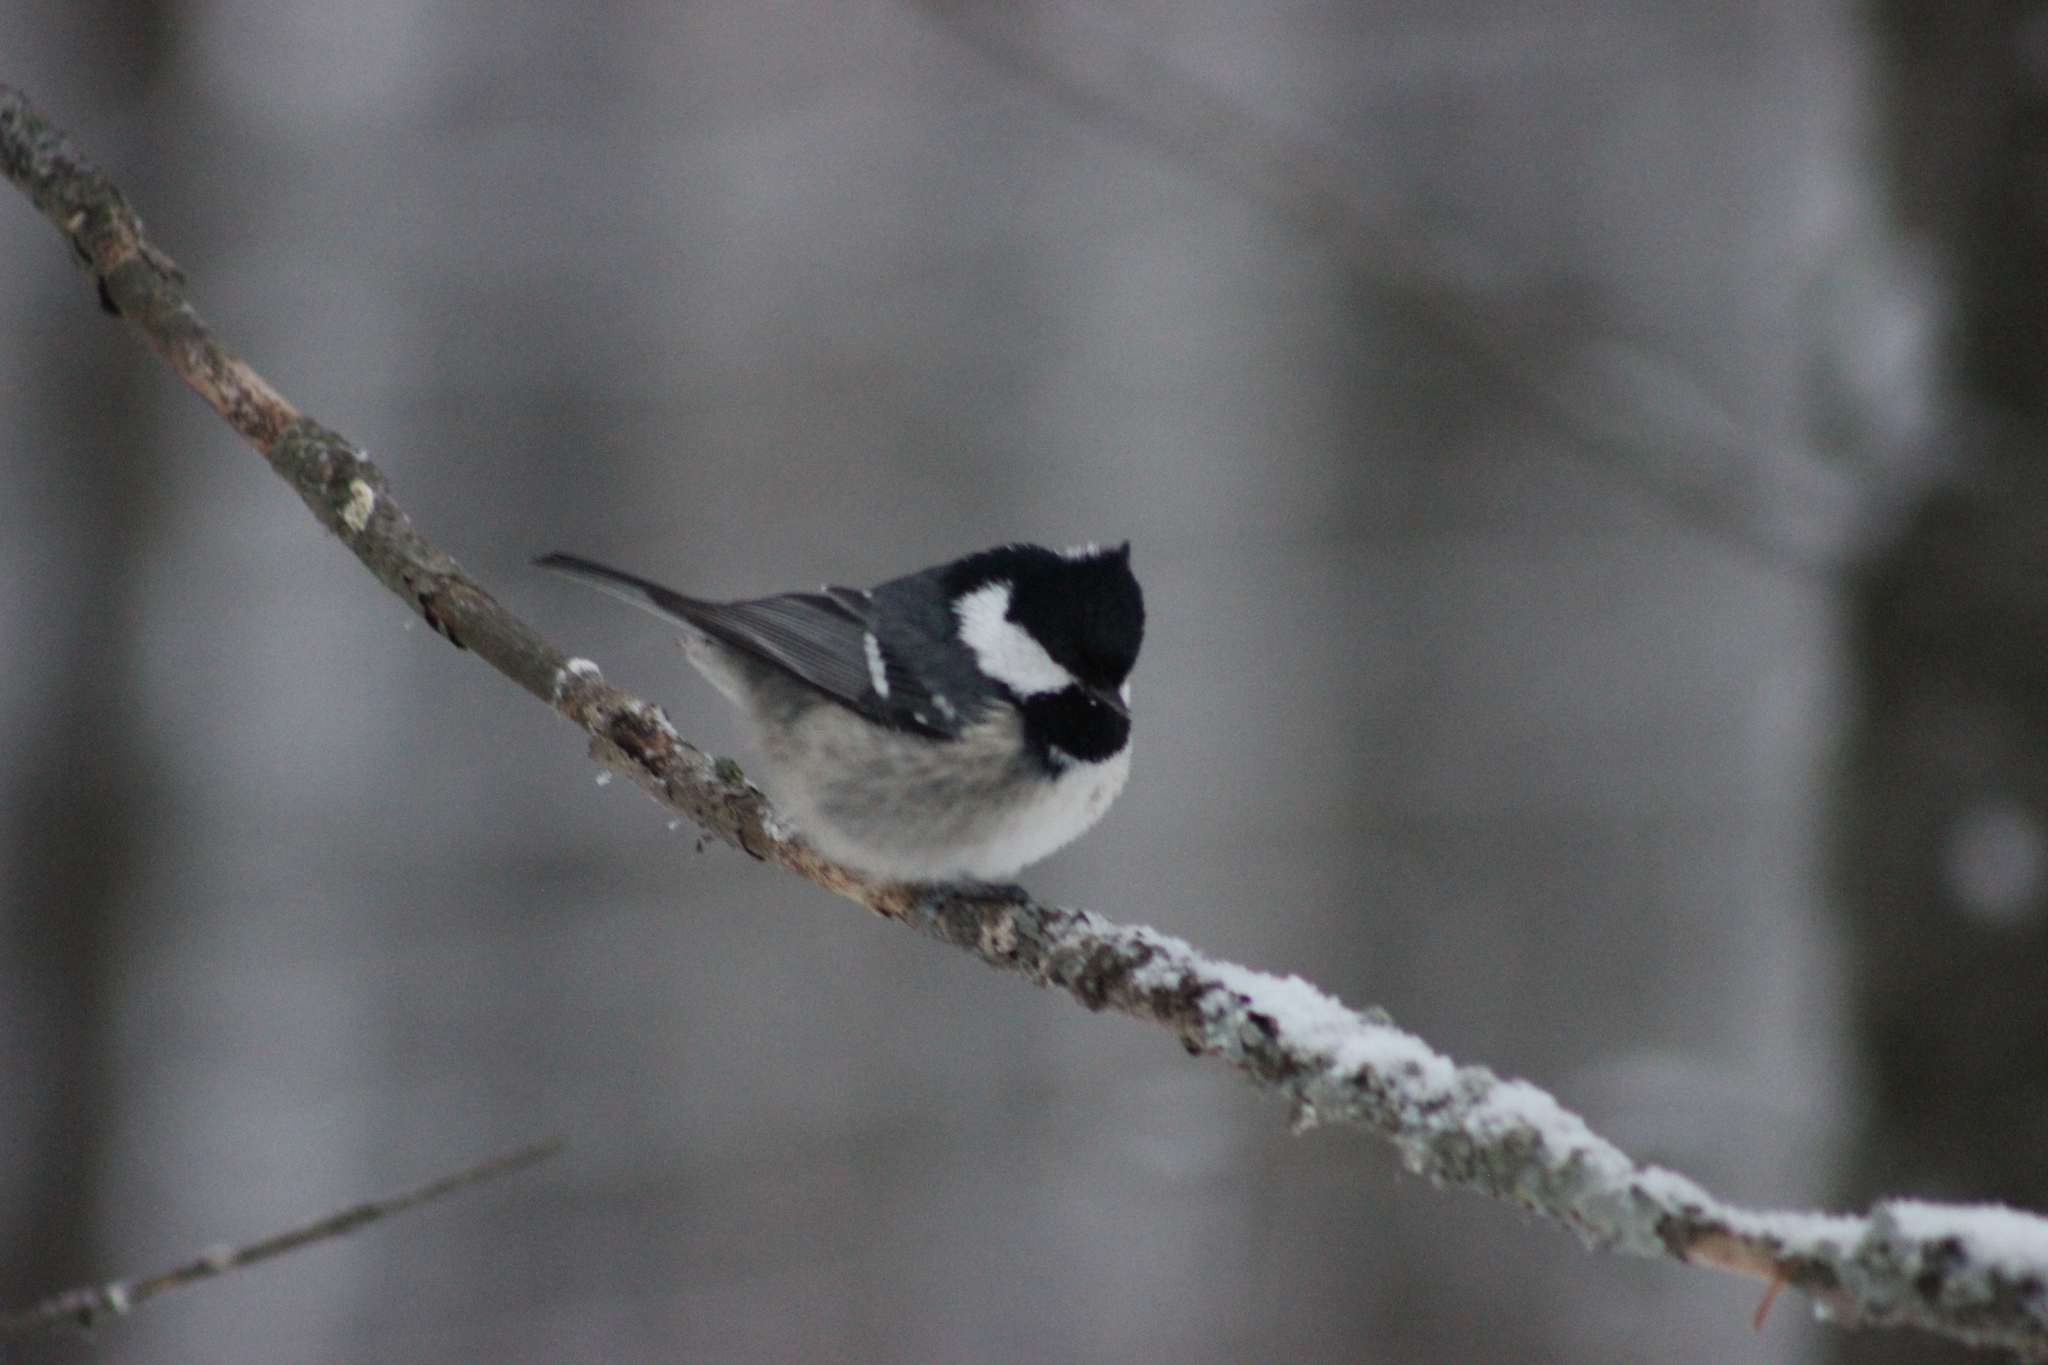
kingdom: Animalia
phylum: Chordata
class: Aves
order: Passeriformes
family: Paridae
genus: Periparus
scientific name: Periparus ater
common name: Coal tit
